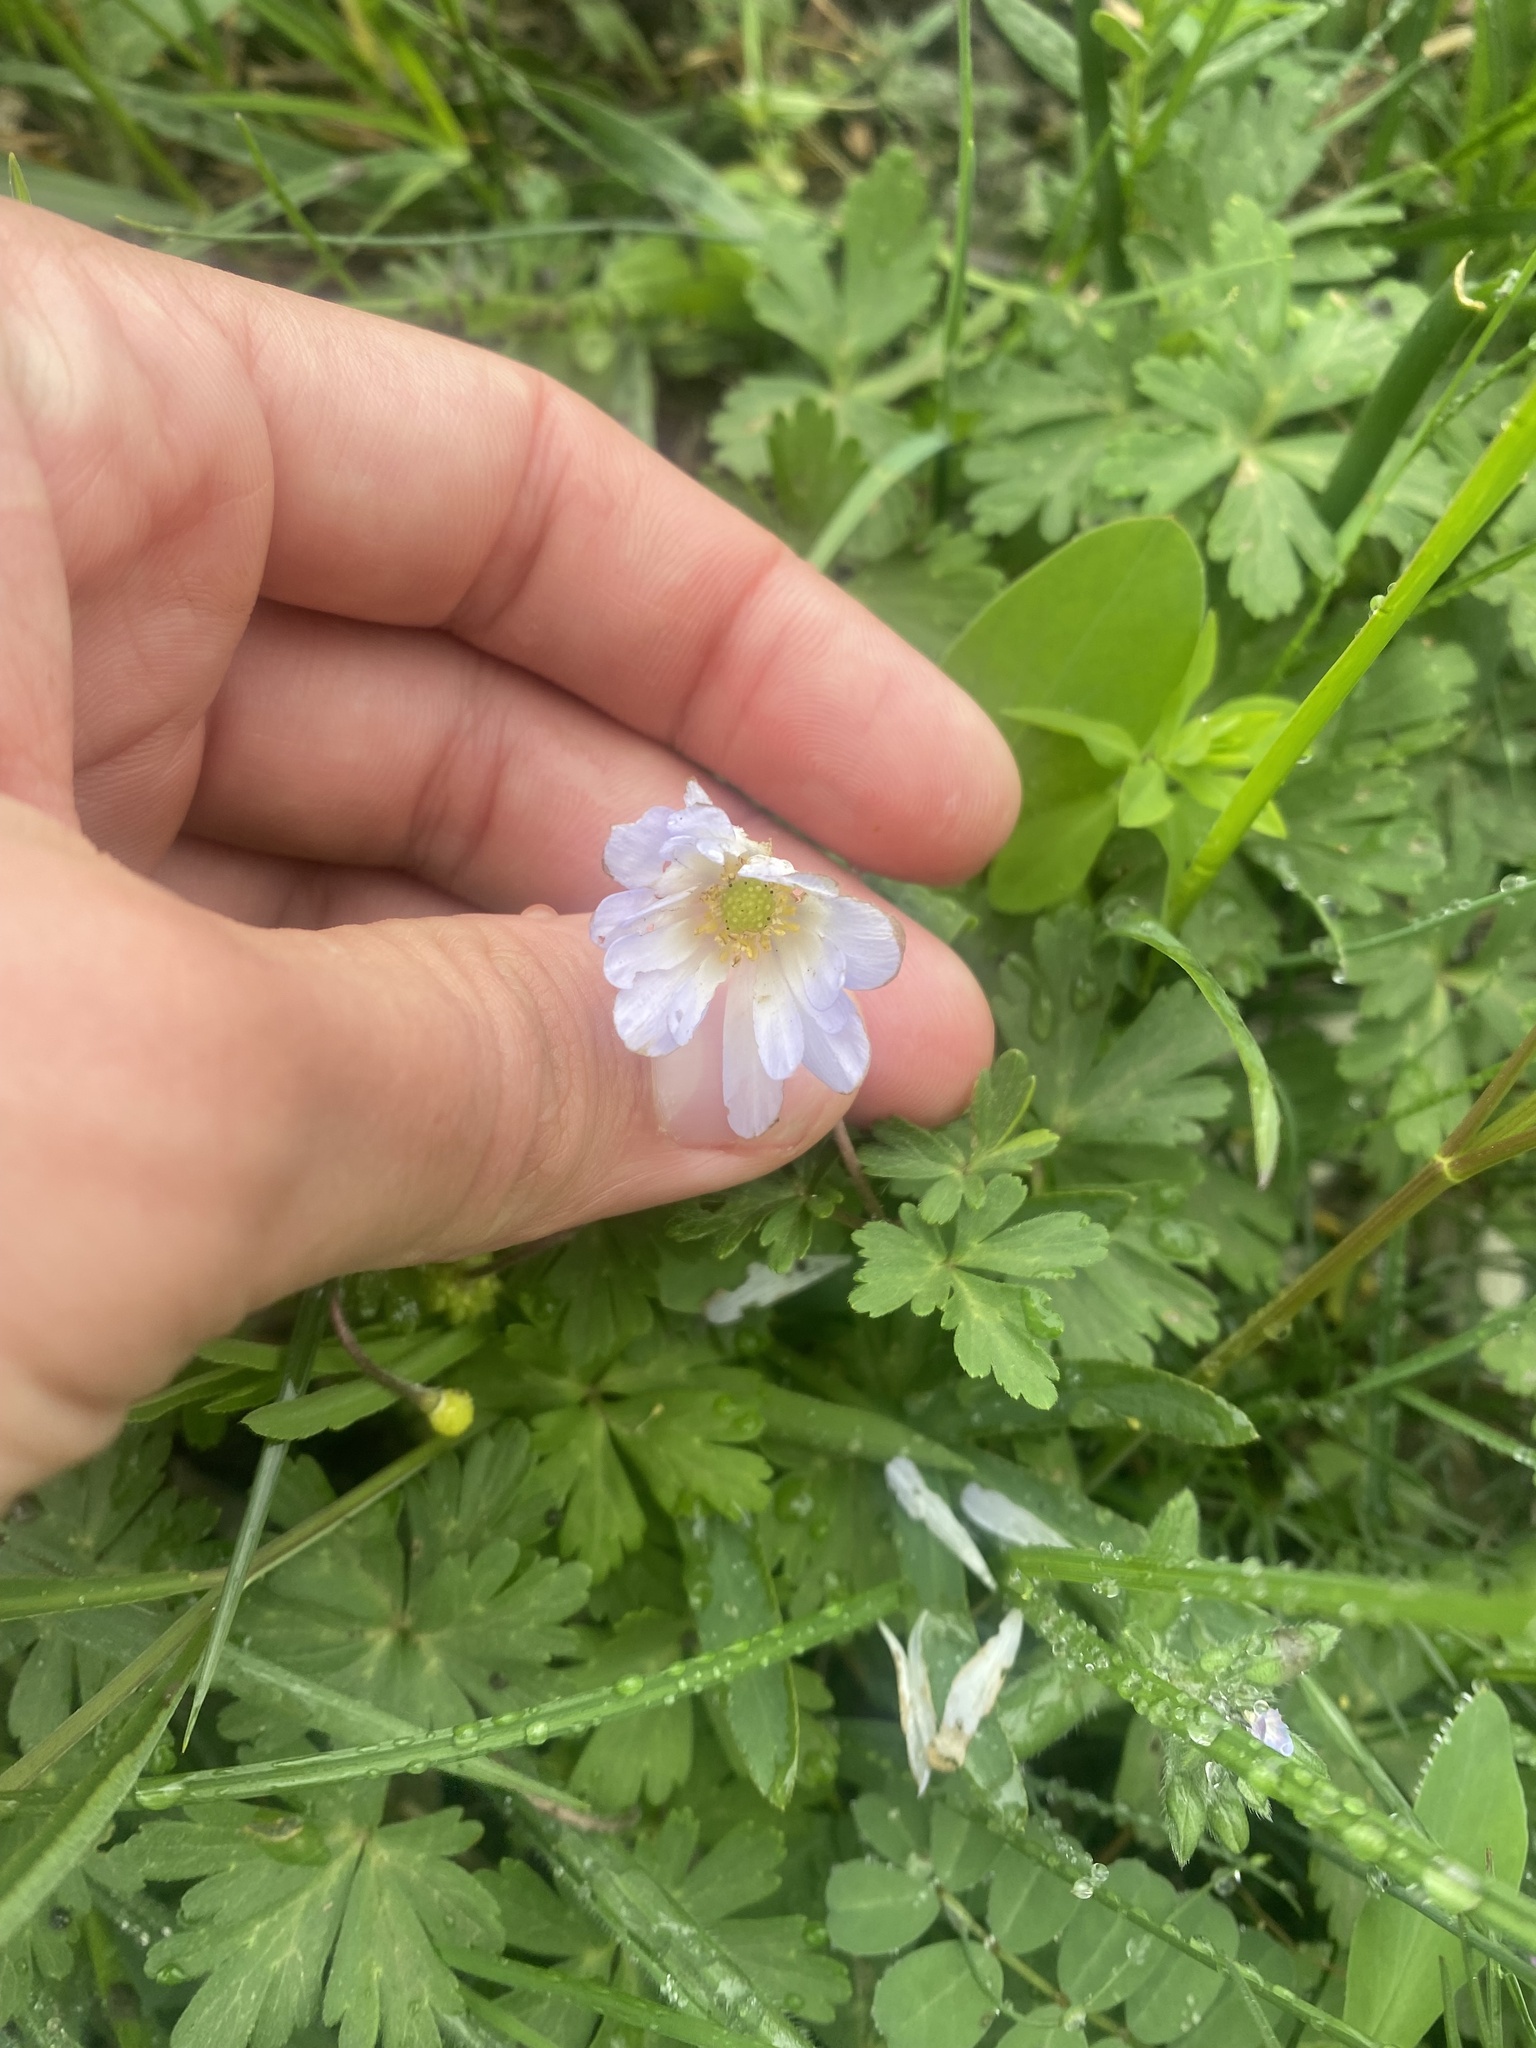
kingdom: Plantae
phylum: Tracheophyta
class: Magnoliopsida
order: Ranunculales
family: Ranunculaceae
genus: Anemone
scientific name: Anemone blanda
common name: Balkan anemone
